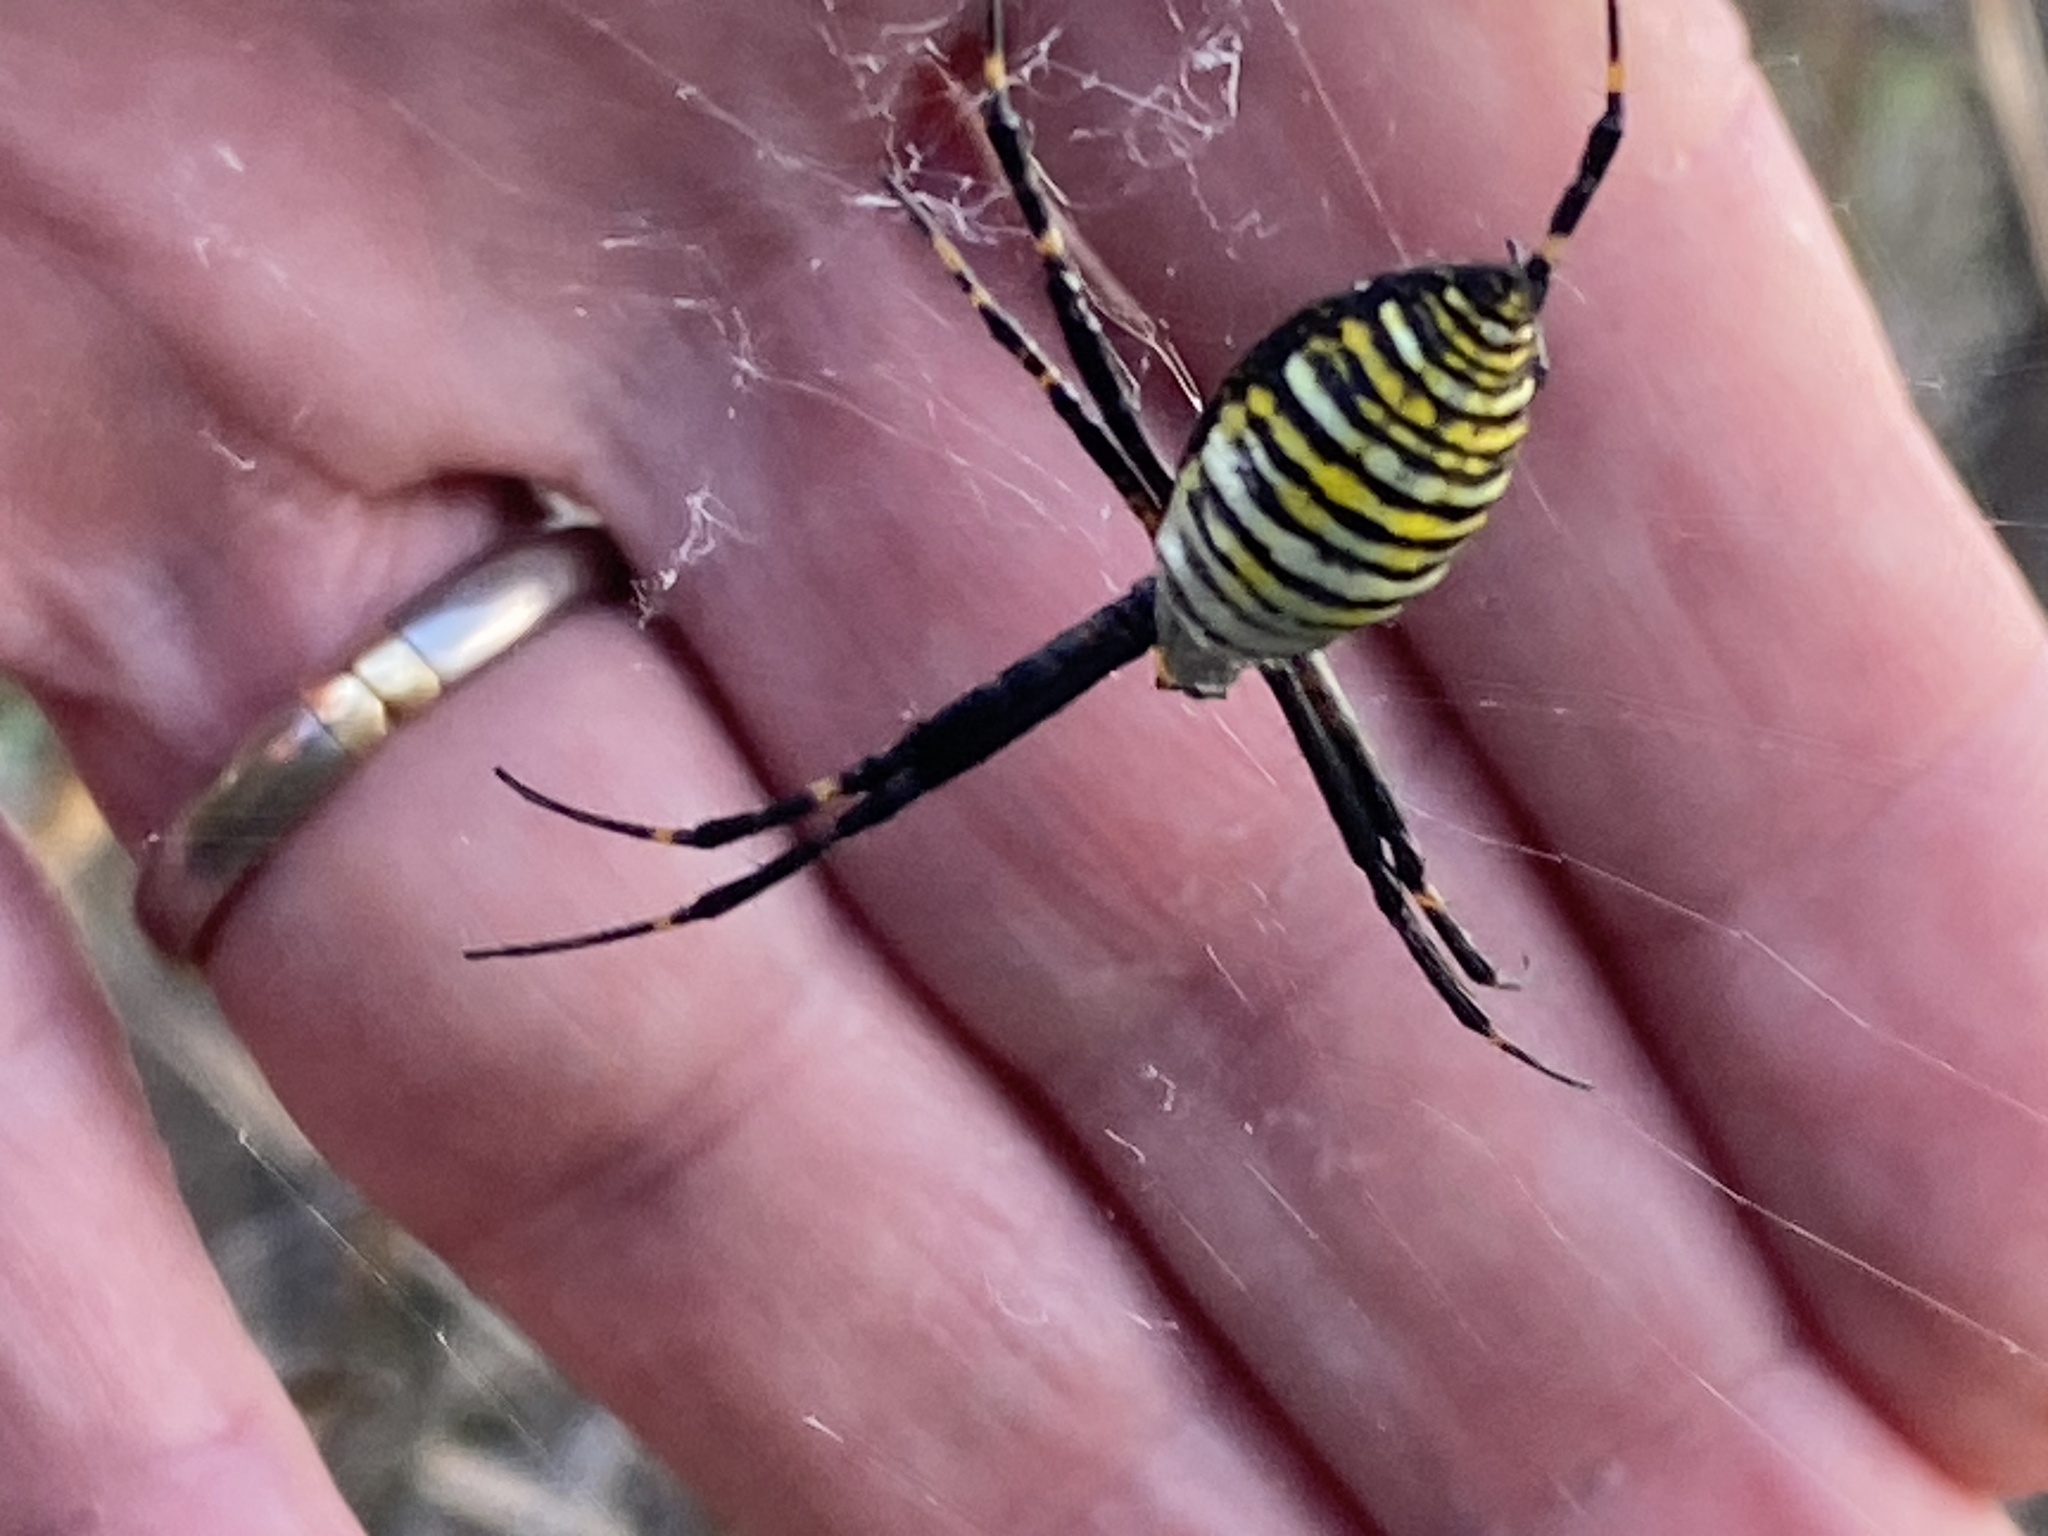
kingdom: Animalia
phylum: Arthropoda
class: Arachnida
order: Araneae
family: Araneidae
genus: Argiope
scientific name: Argiope trifasciata
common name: Banded garden spider
